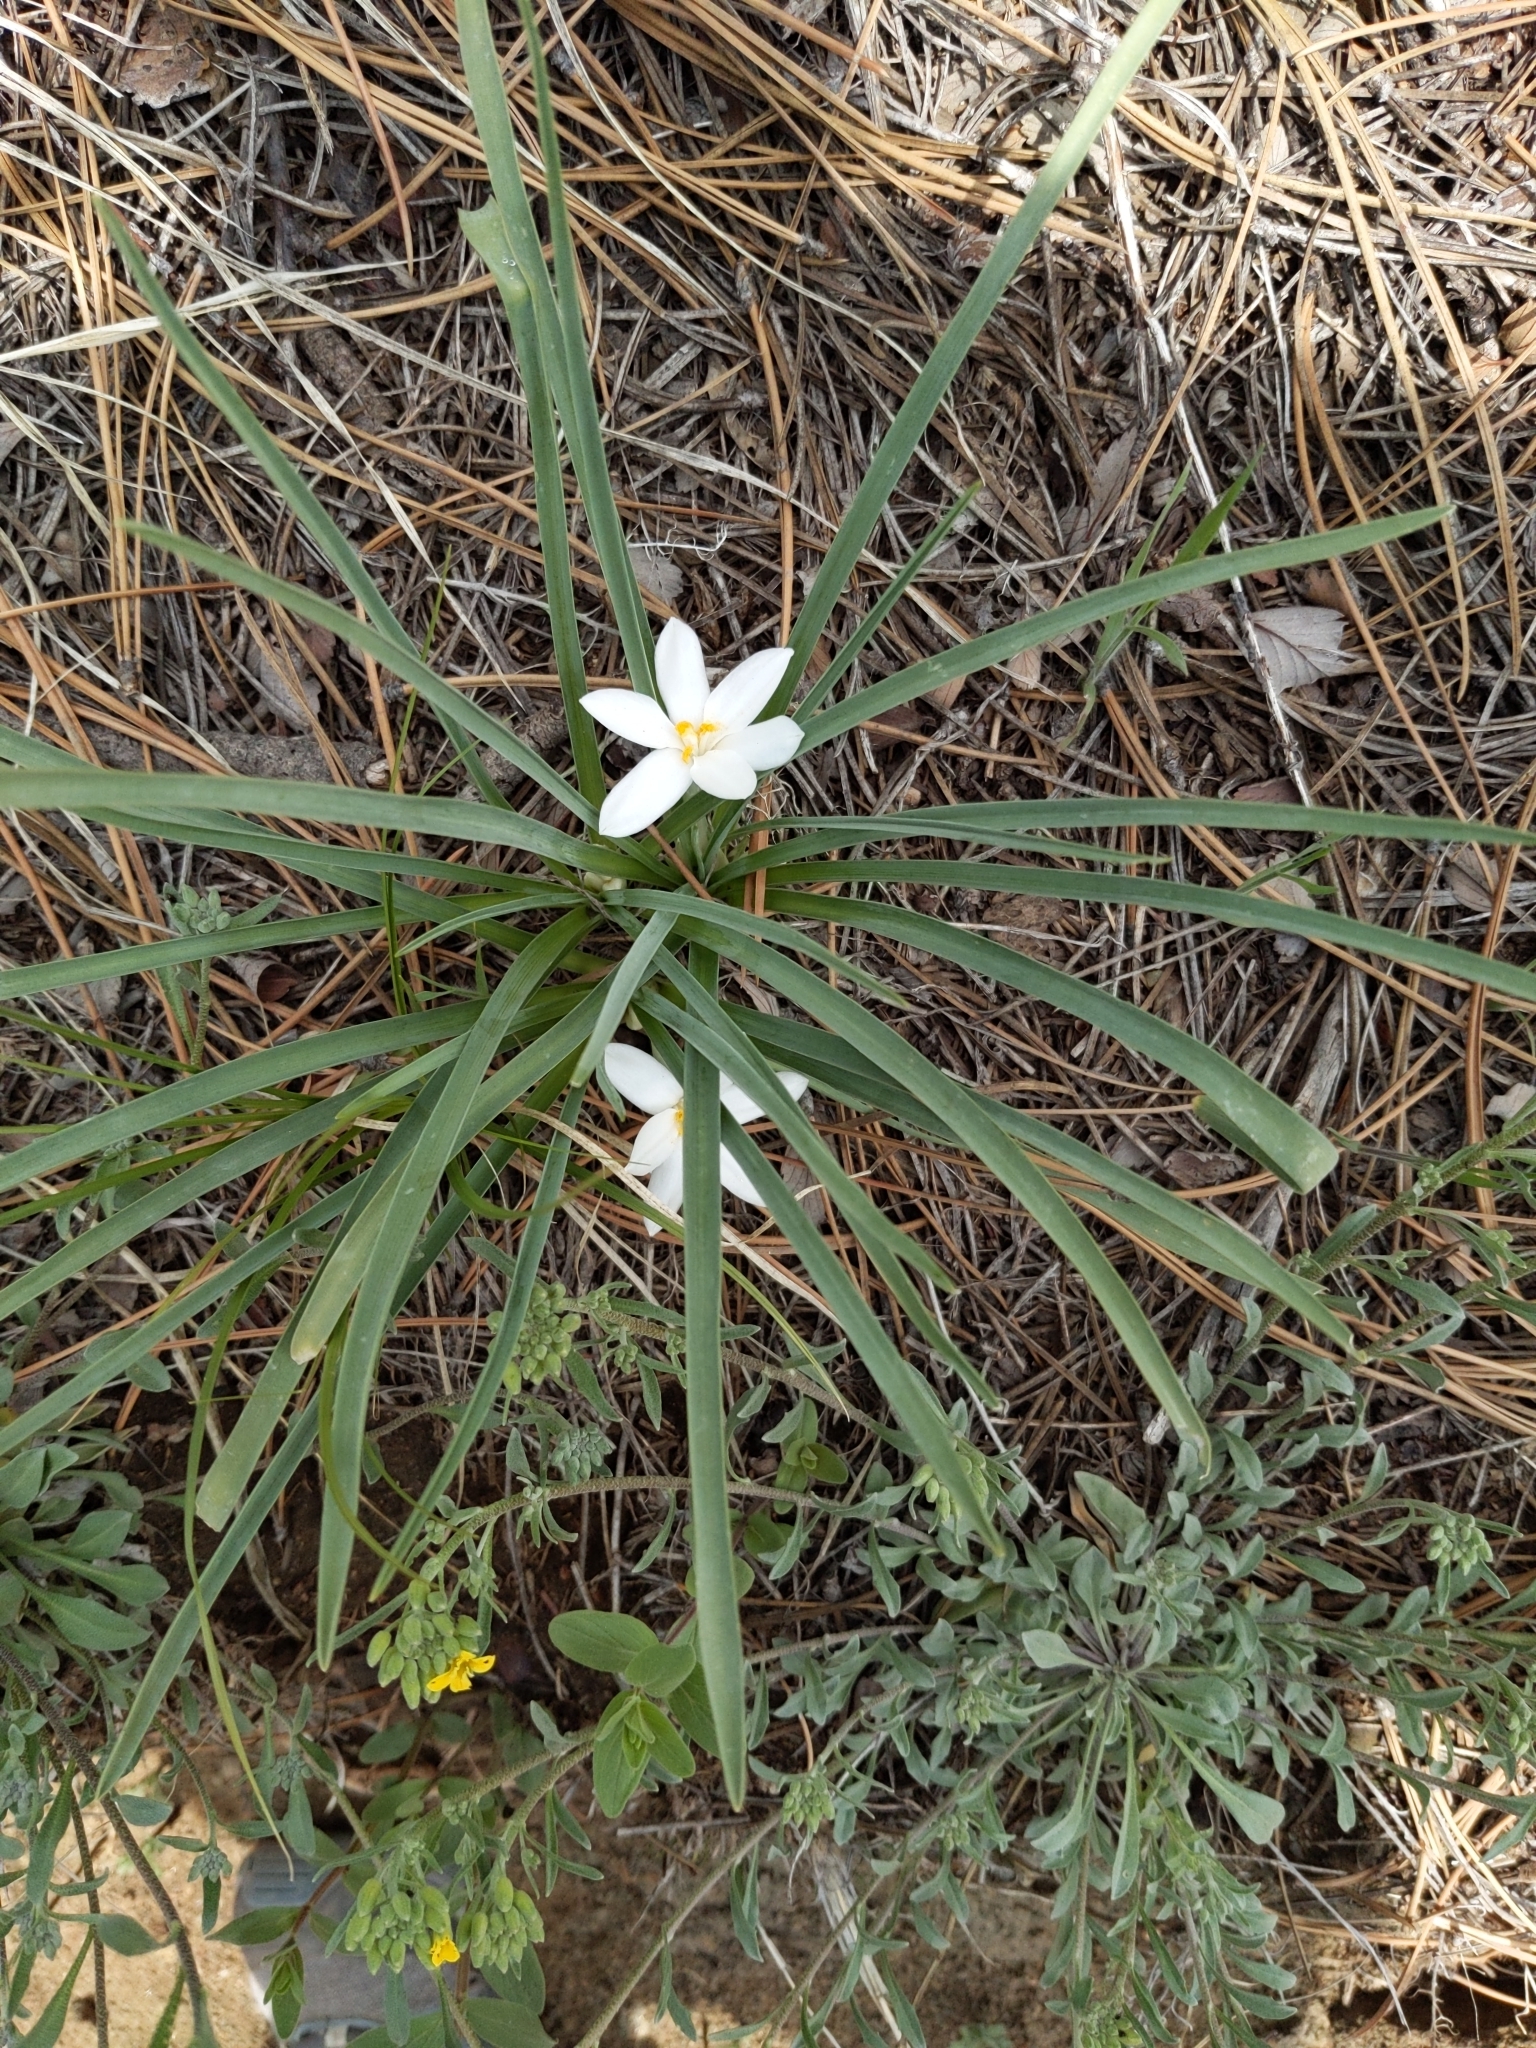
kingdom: Plantae
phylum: Tracheophyta
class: Liliopsida
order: Asparagales
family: Asparagaceae
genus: Leucocrinum
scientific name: Leucocrinum montanum
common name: Mountain-lily
